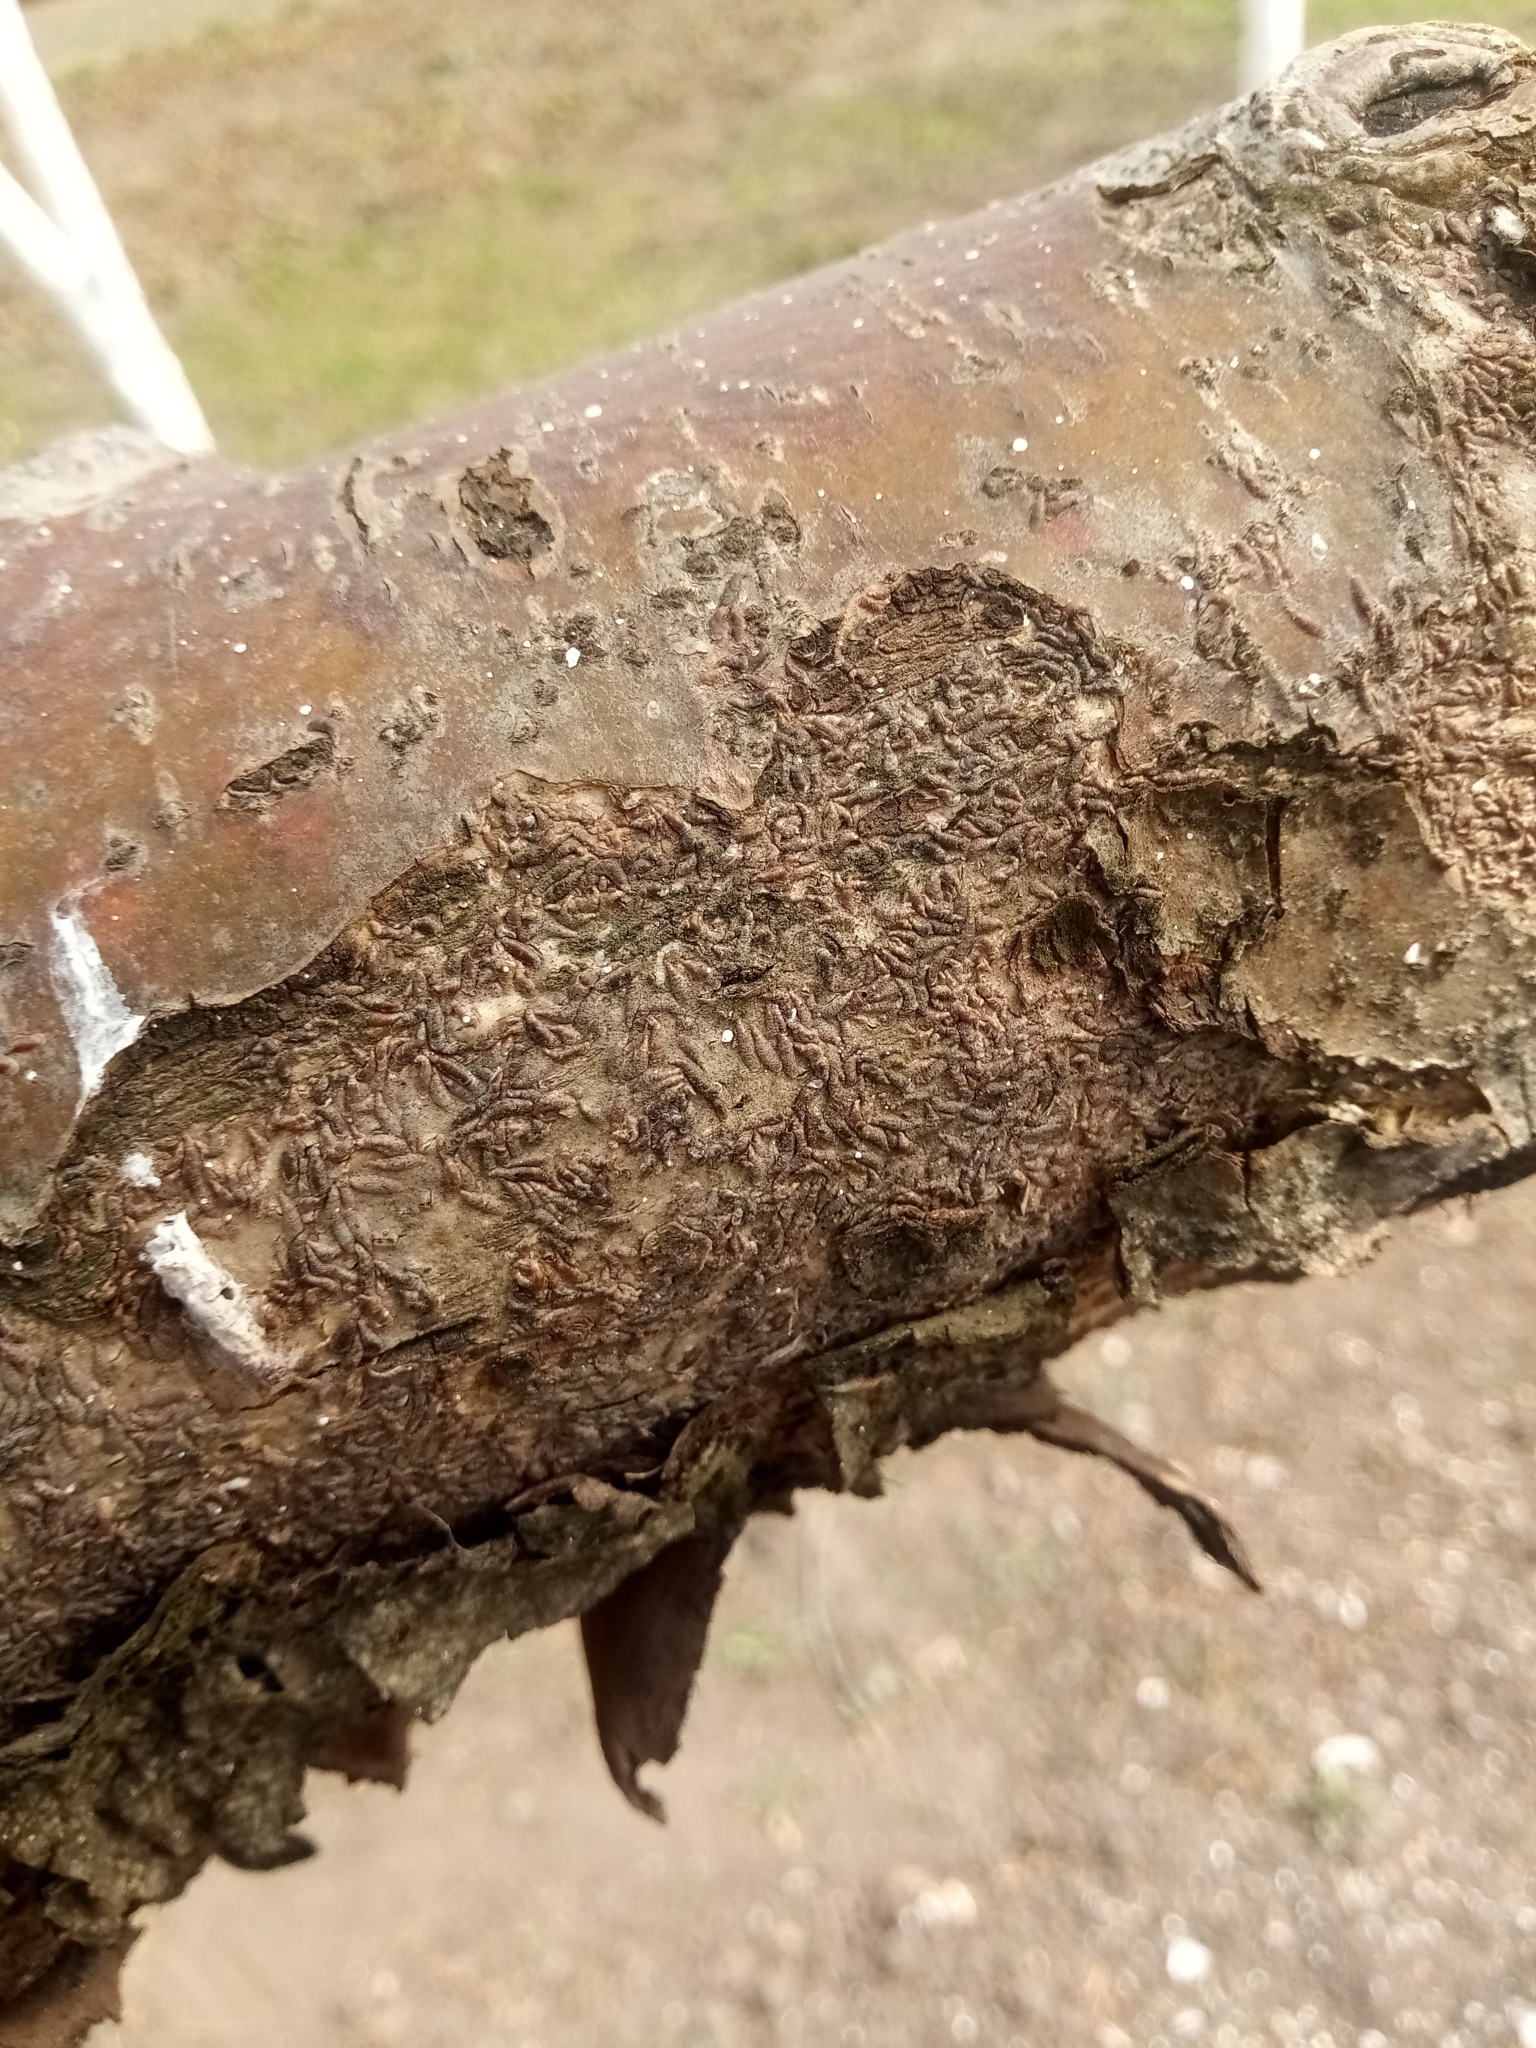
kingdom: Animalia
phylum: Arthropoda
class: Insecta
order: Hemiptera
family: Diaspididae
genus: Lepidosaphes
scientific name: Lepidosaphes ulmi
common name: Oystershell scale
